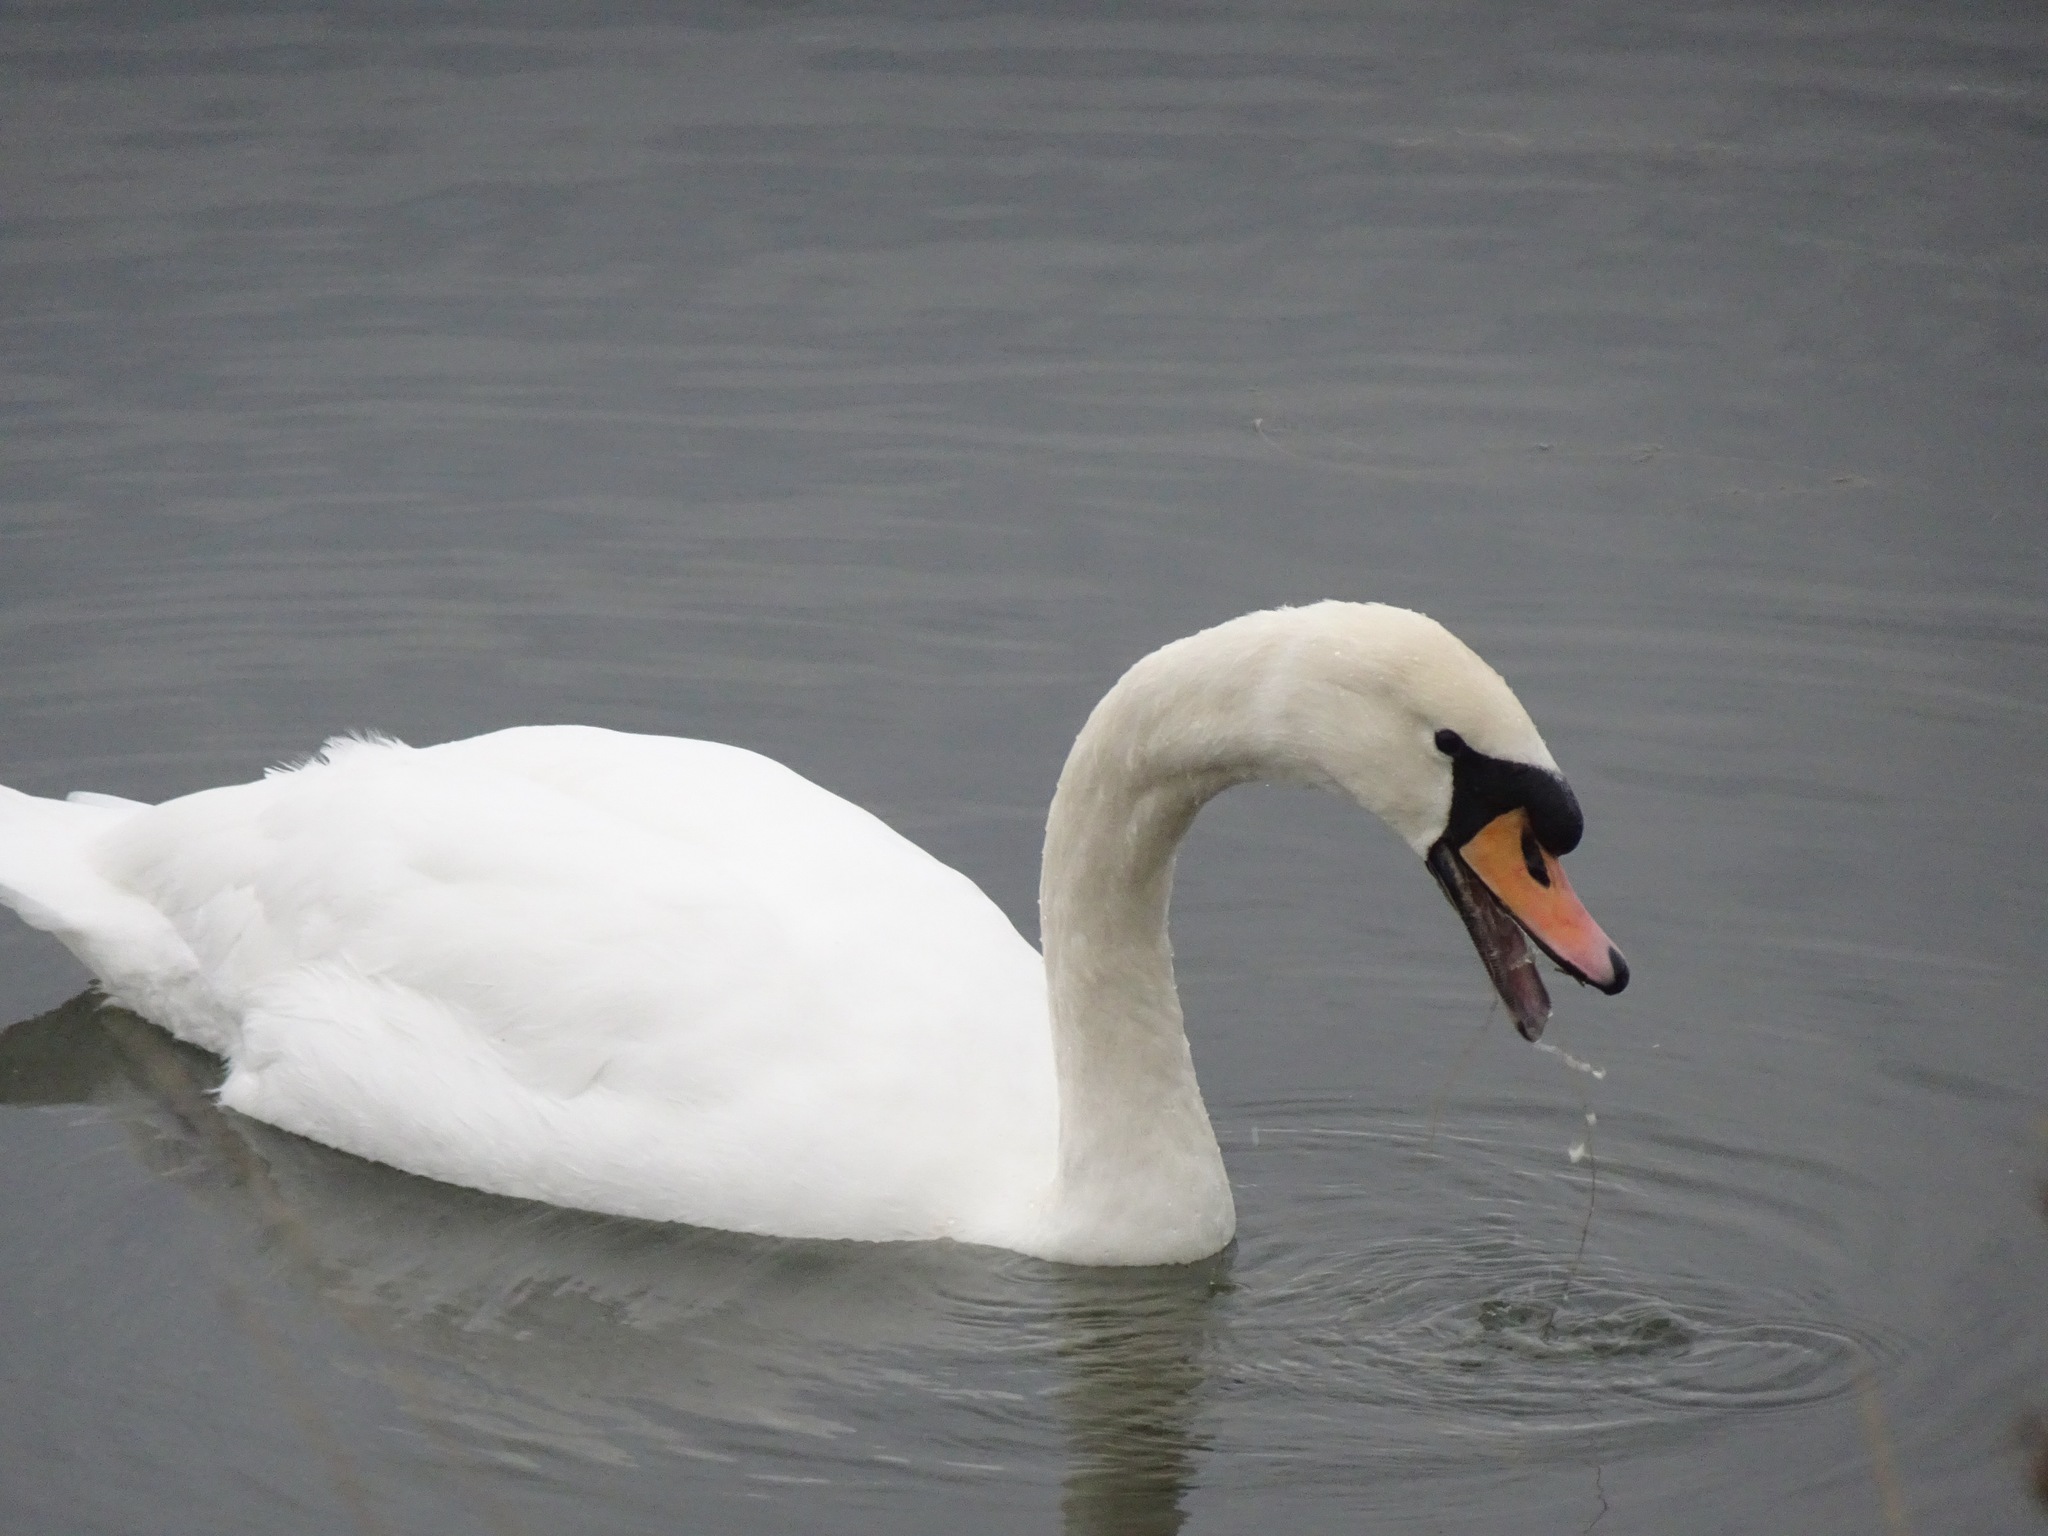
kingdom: Animalia
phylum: Chordata
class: Aves
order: Anseriformes
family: Anatidae
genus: Cygnus
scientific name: Cygnus olor
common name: Mute swan
